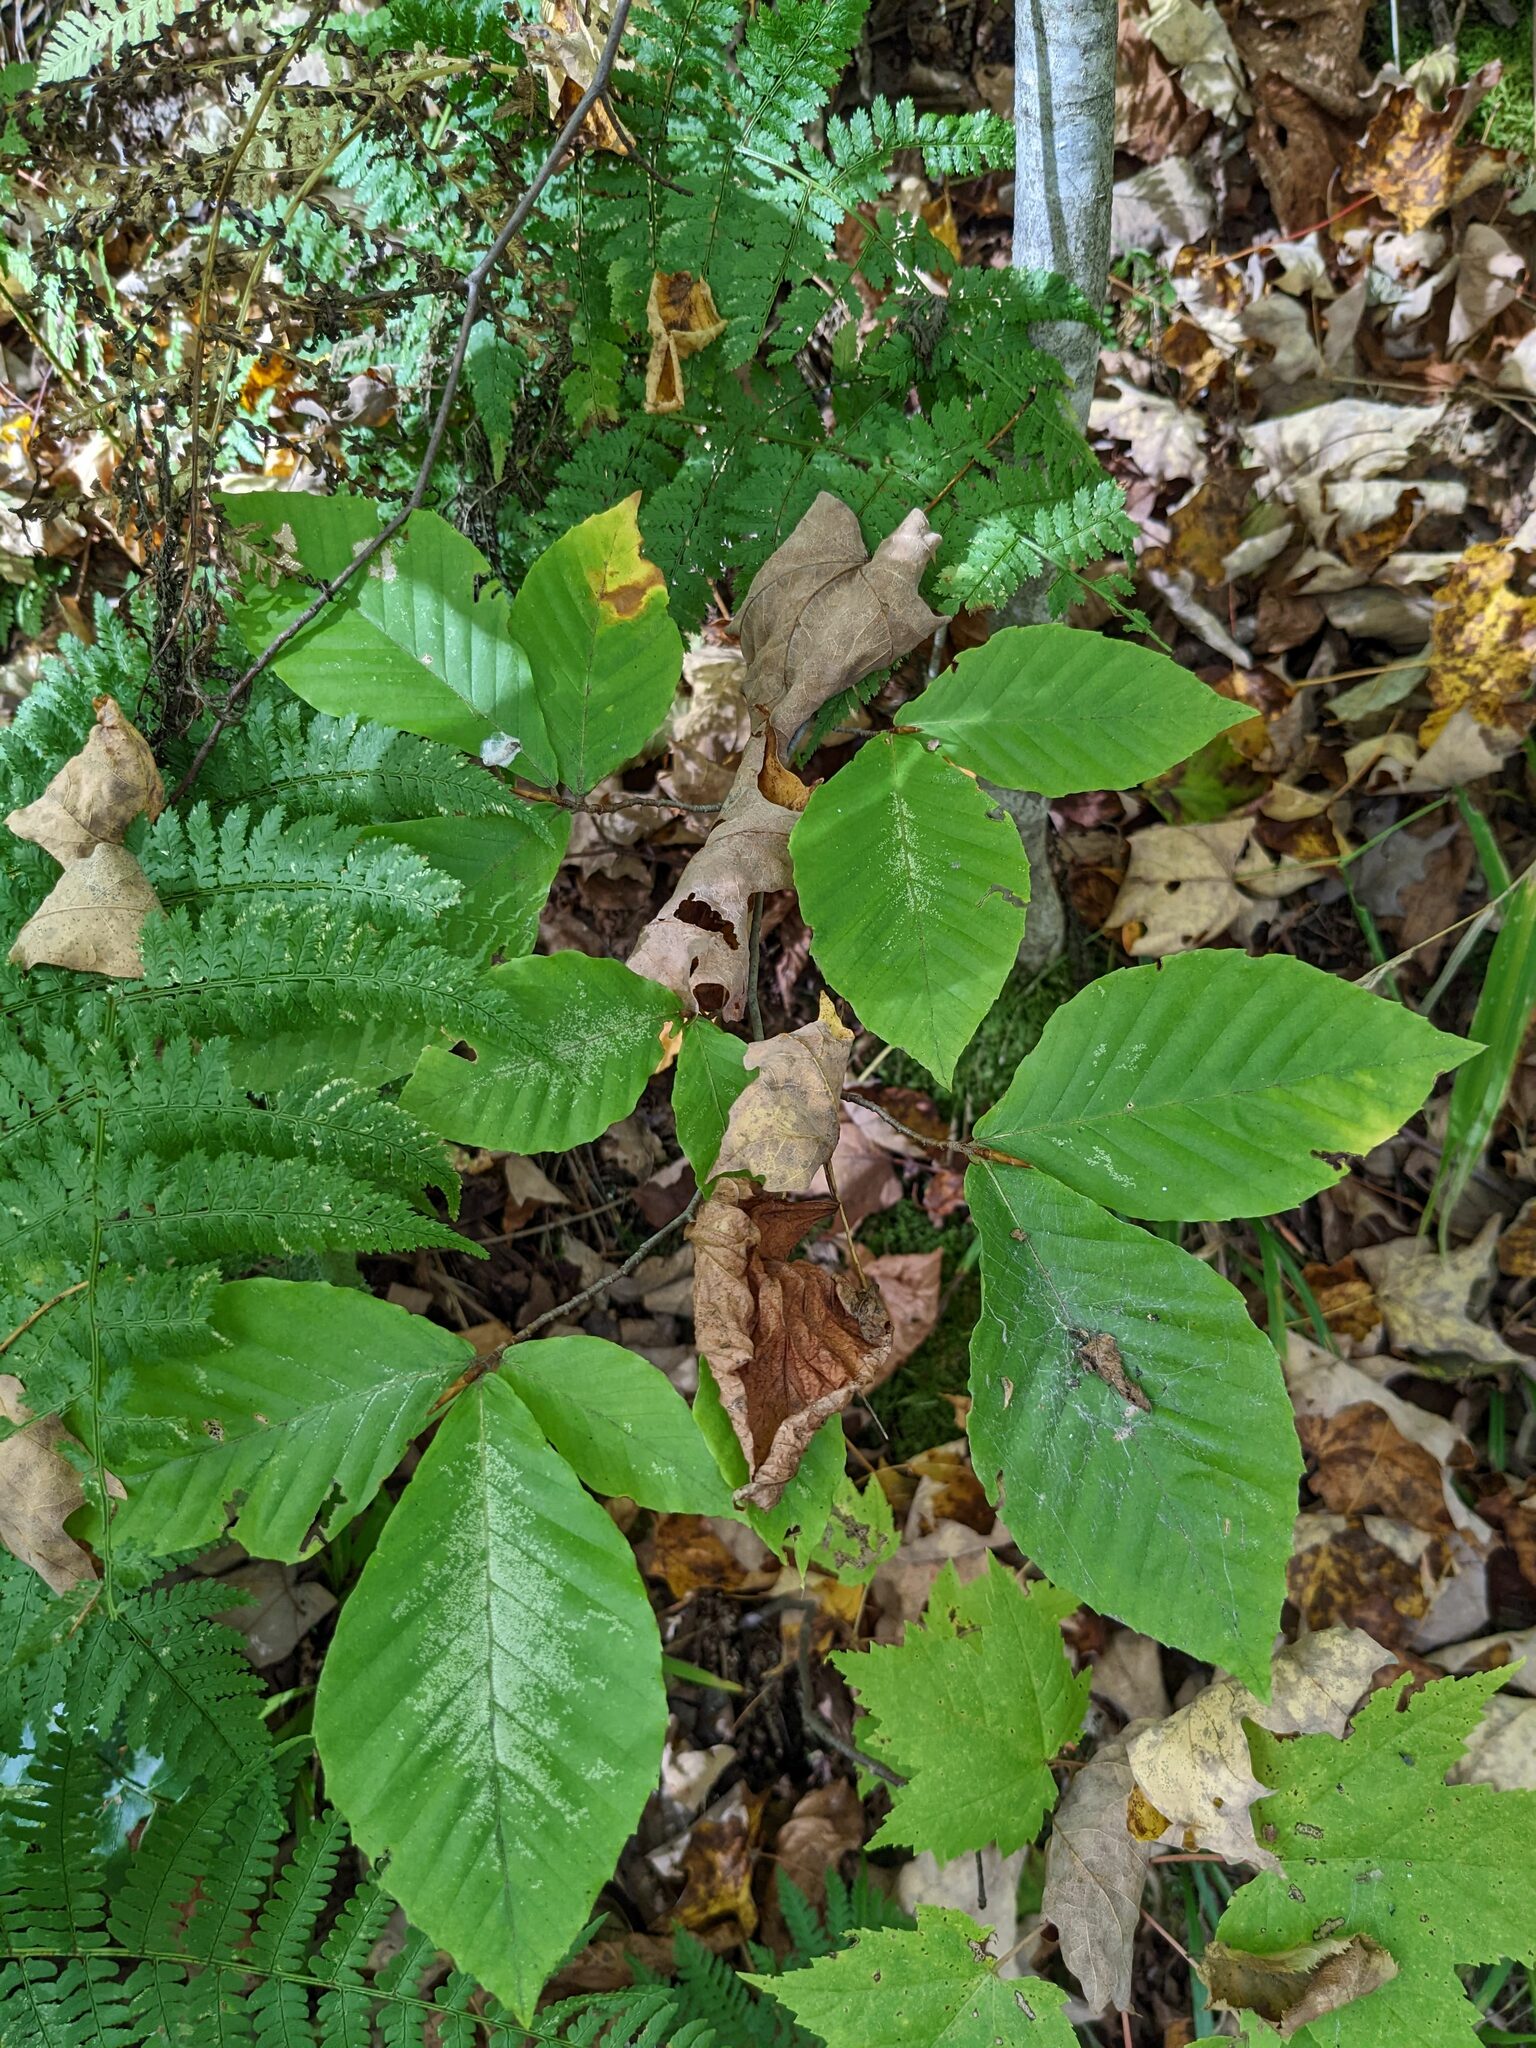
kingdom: Plantae
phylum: Tracheophyta
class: Magnoliopsida
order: Fagales
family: Fagaceae
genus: Fagus
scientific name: Fagus grandifolia
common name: American beech
